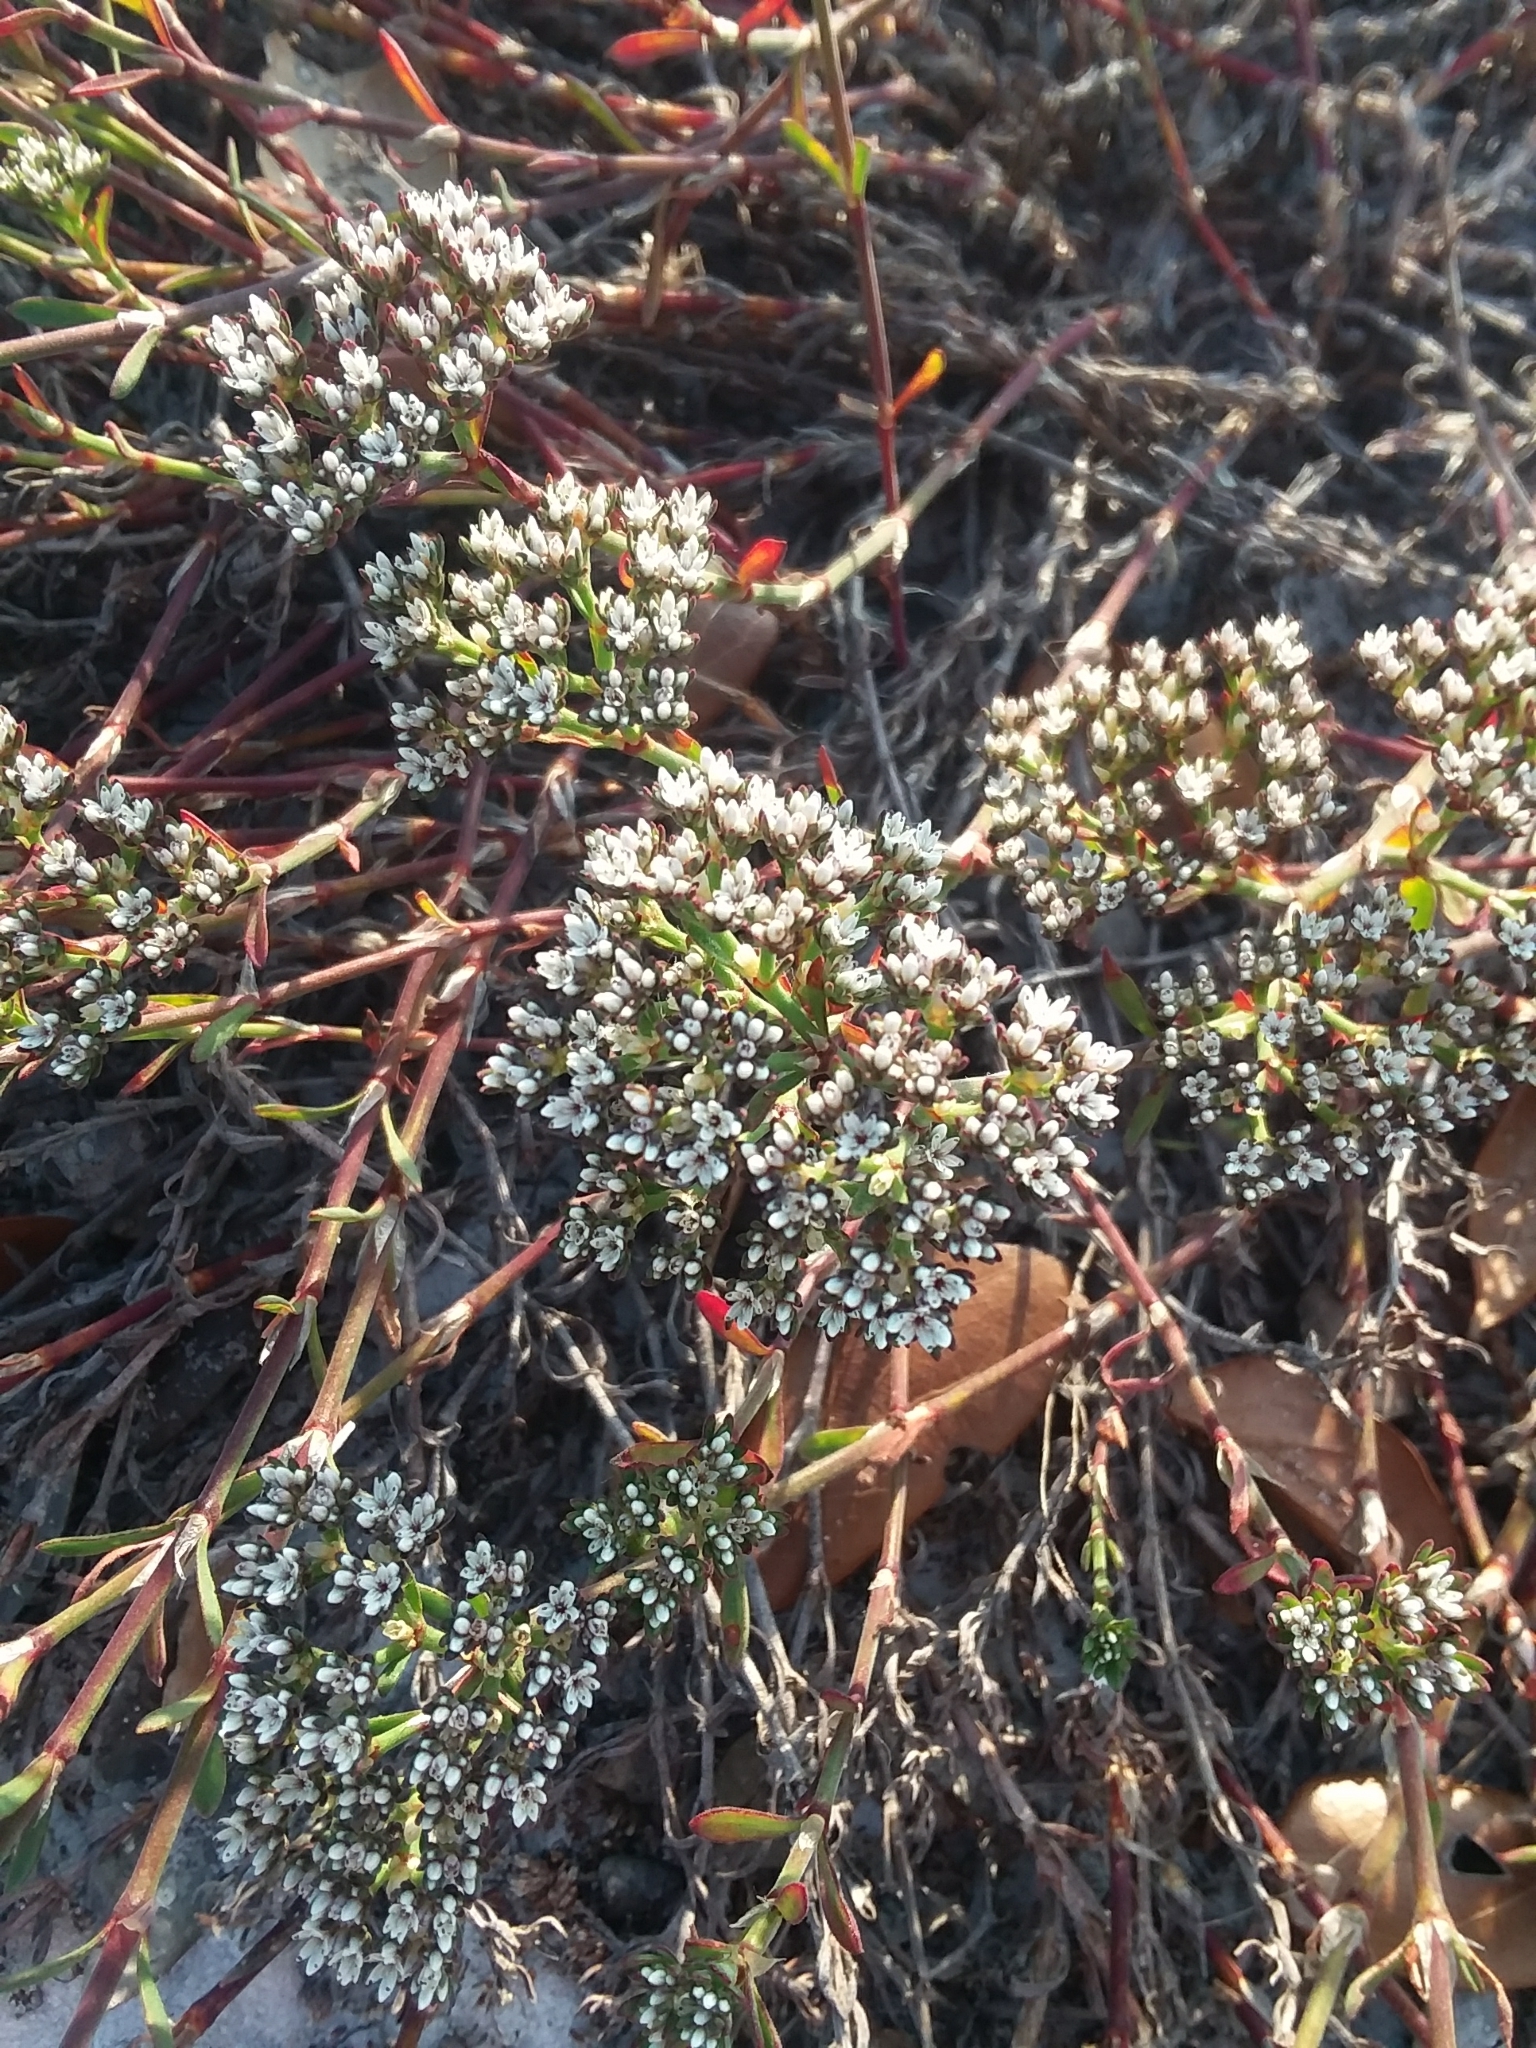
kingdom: Plantae
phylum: Tracheophyta
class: Magnoliopsida
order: Caryophyllales
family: Caryophyllaceae
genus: Paronychia
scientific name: Paronychia erecta
